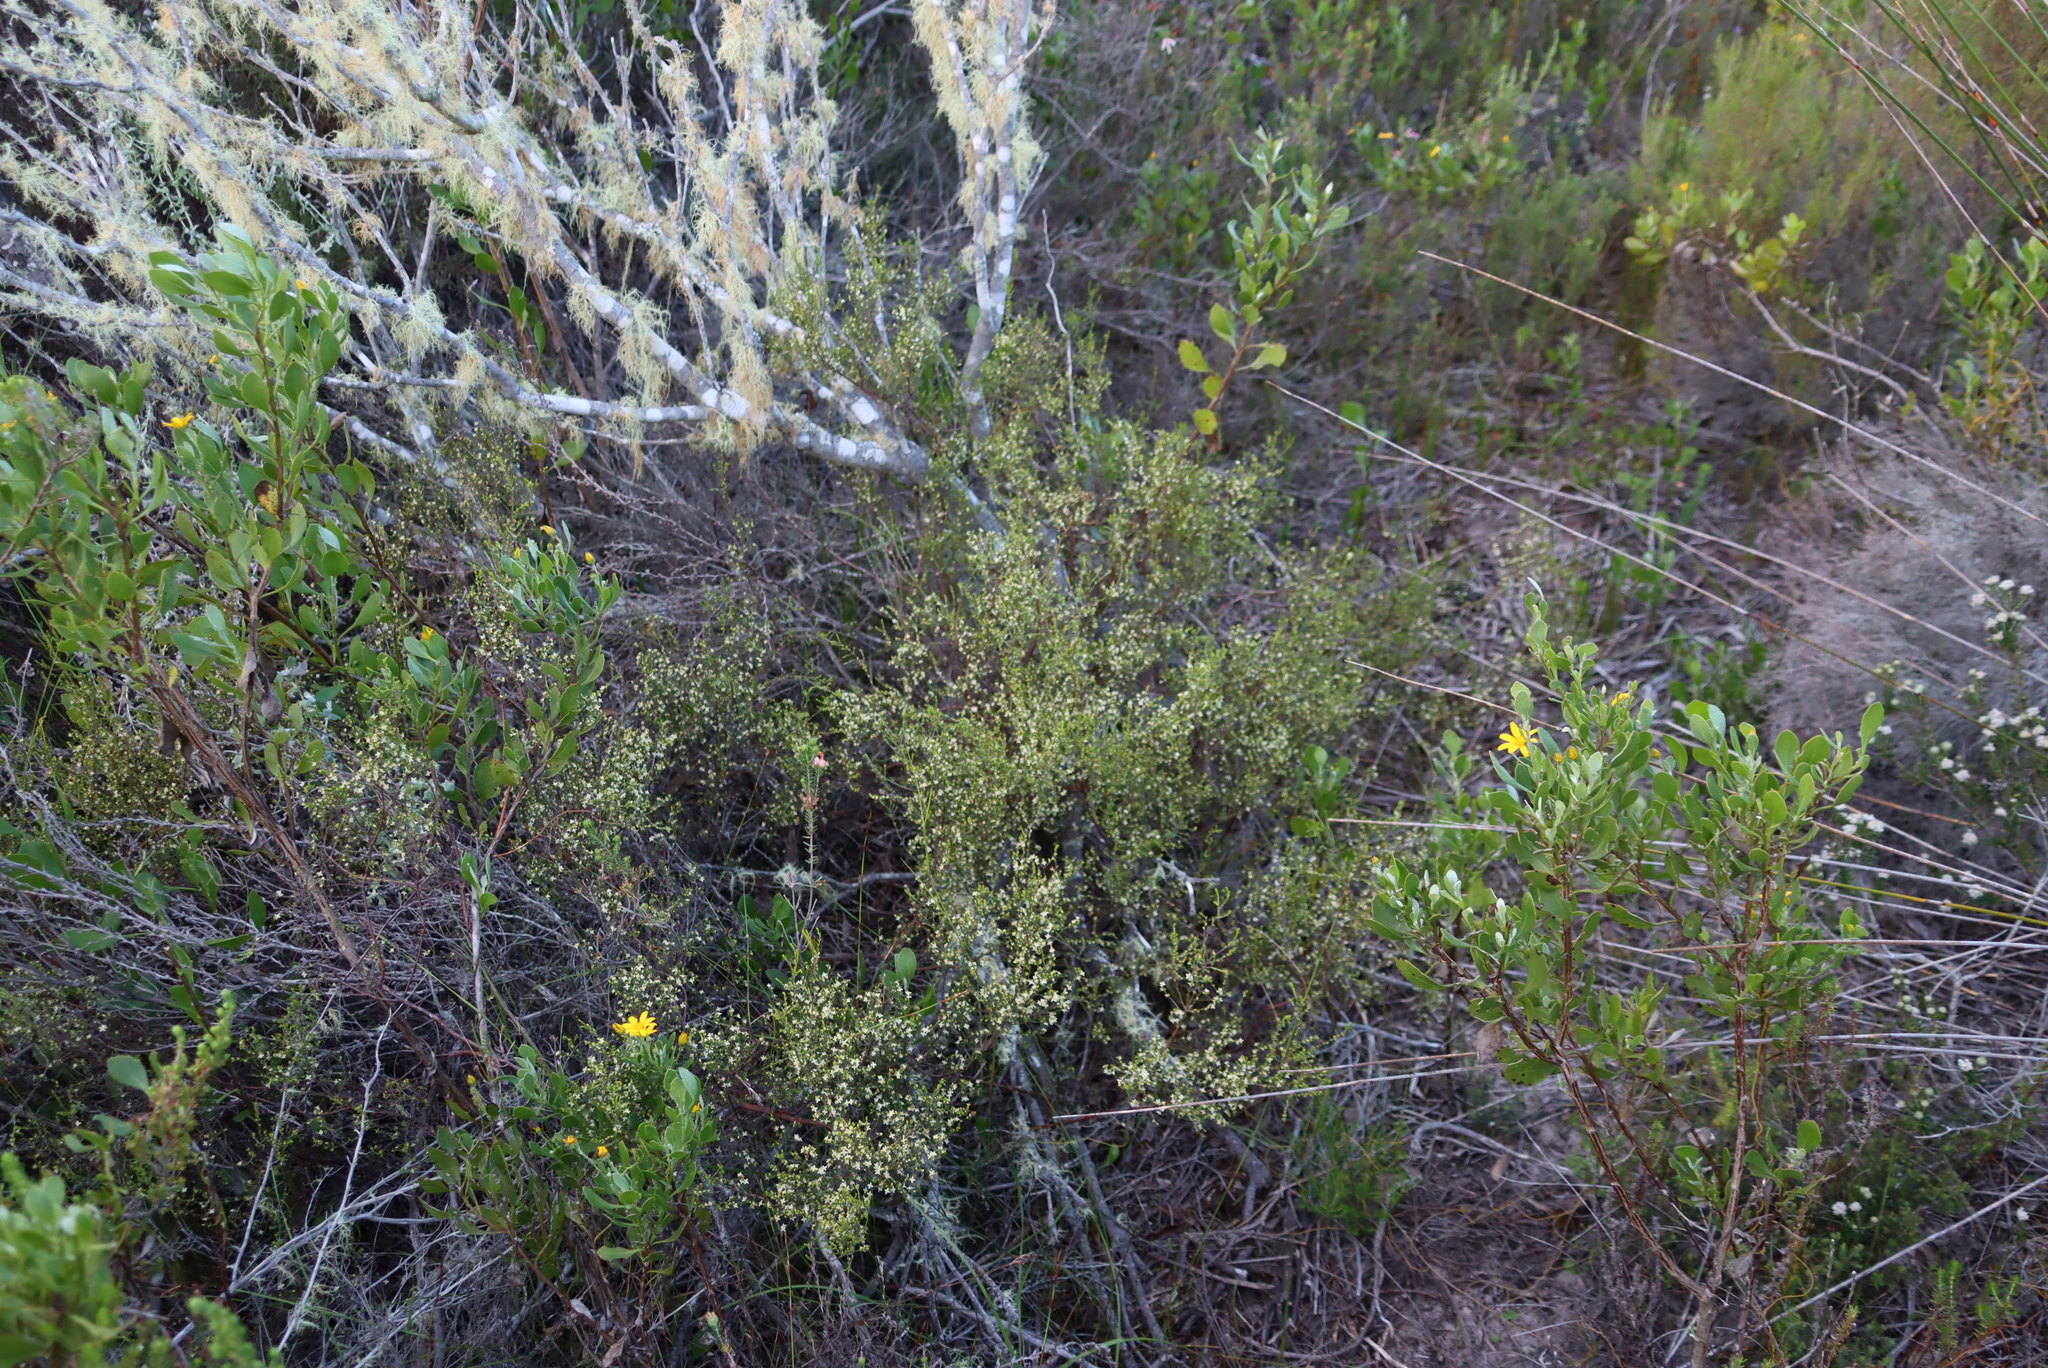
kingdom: Plantae
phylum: Tracheophyta
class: Magnoliopsida
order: Malvales
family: Thymelaeaceae
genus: Lachnaea
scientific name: Lachnaea axillaris
